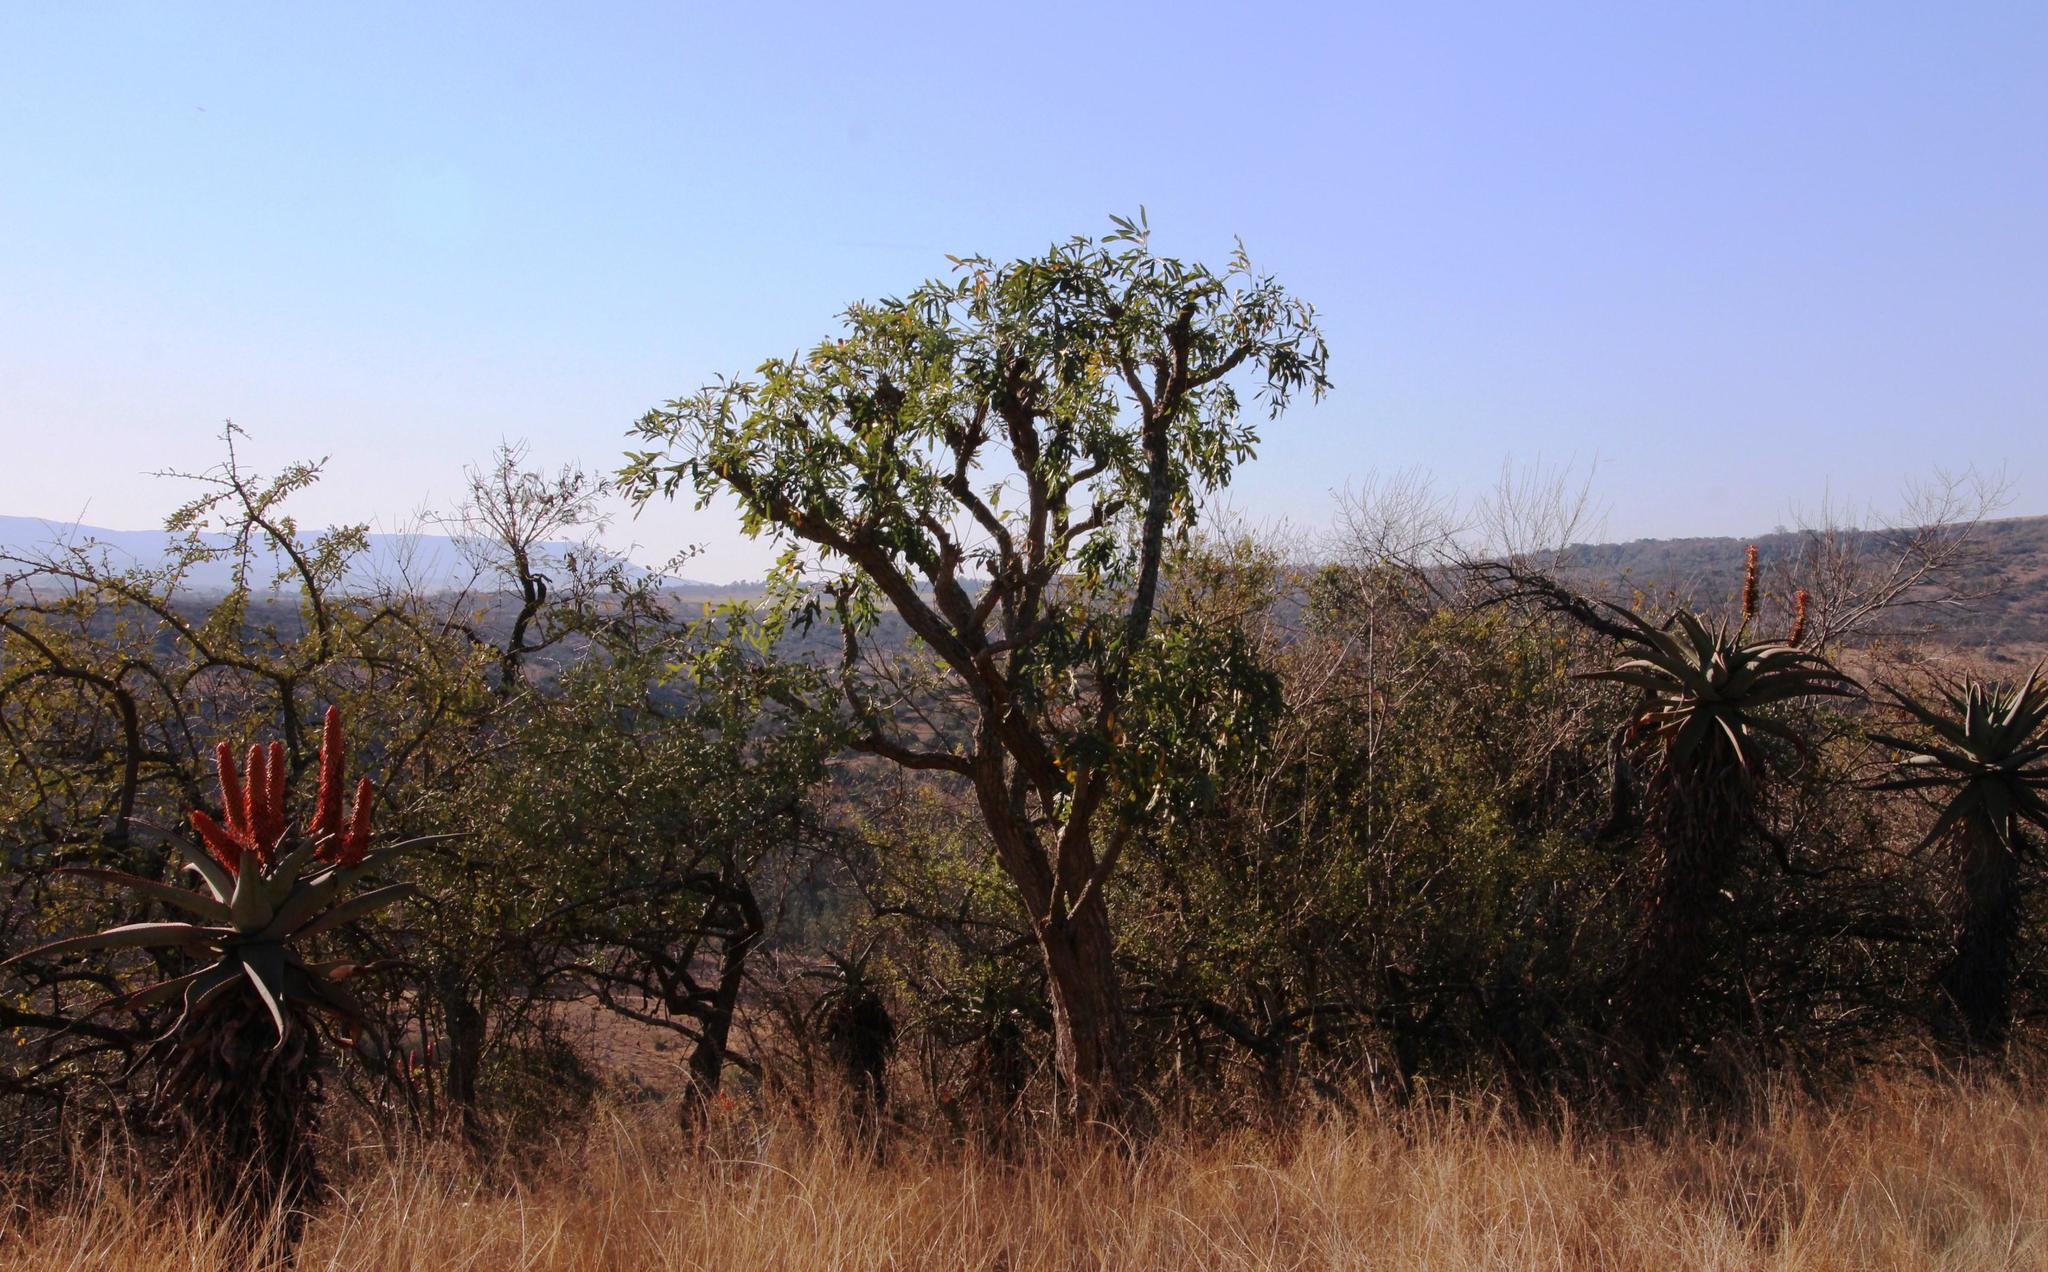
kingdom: Plantae
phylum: Tracheophyta
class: Magnoliopsida
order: Apiales
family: Araliaceae
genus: Cussonia
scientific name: Cussonia spicata
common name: Common cabbagetree
